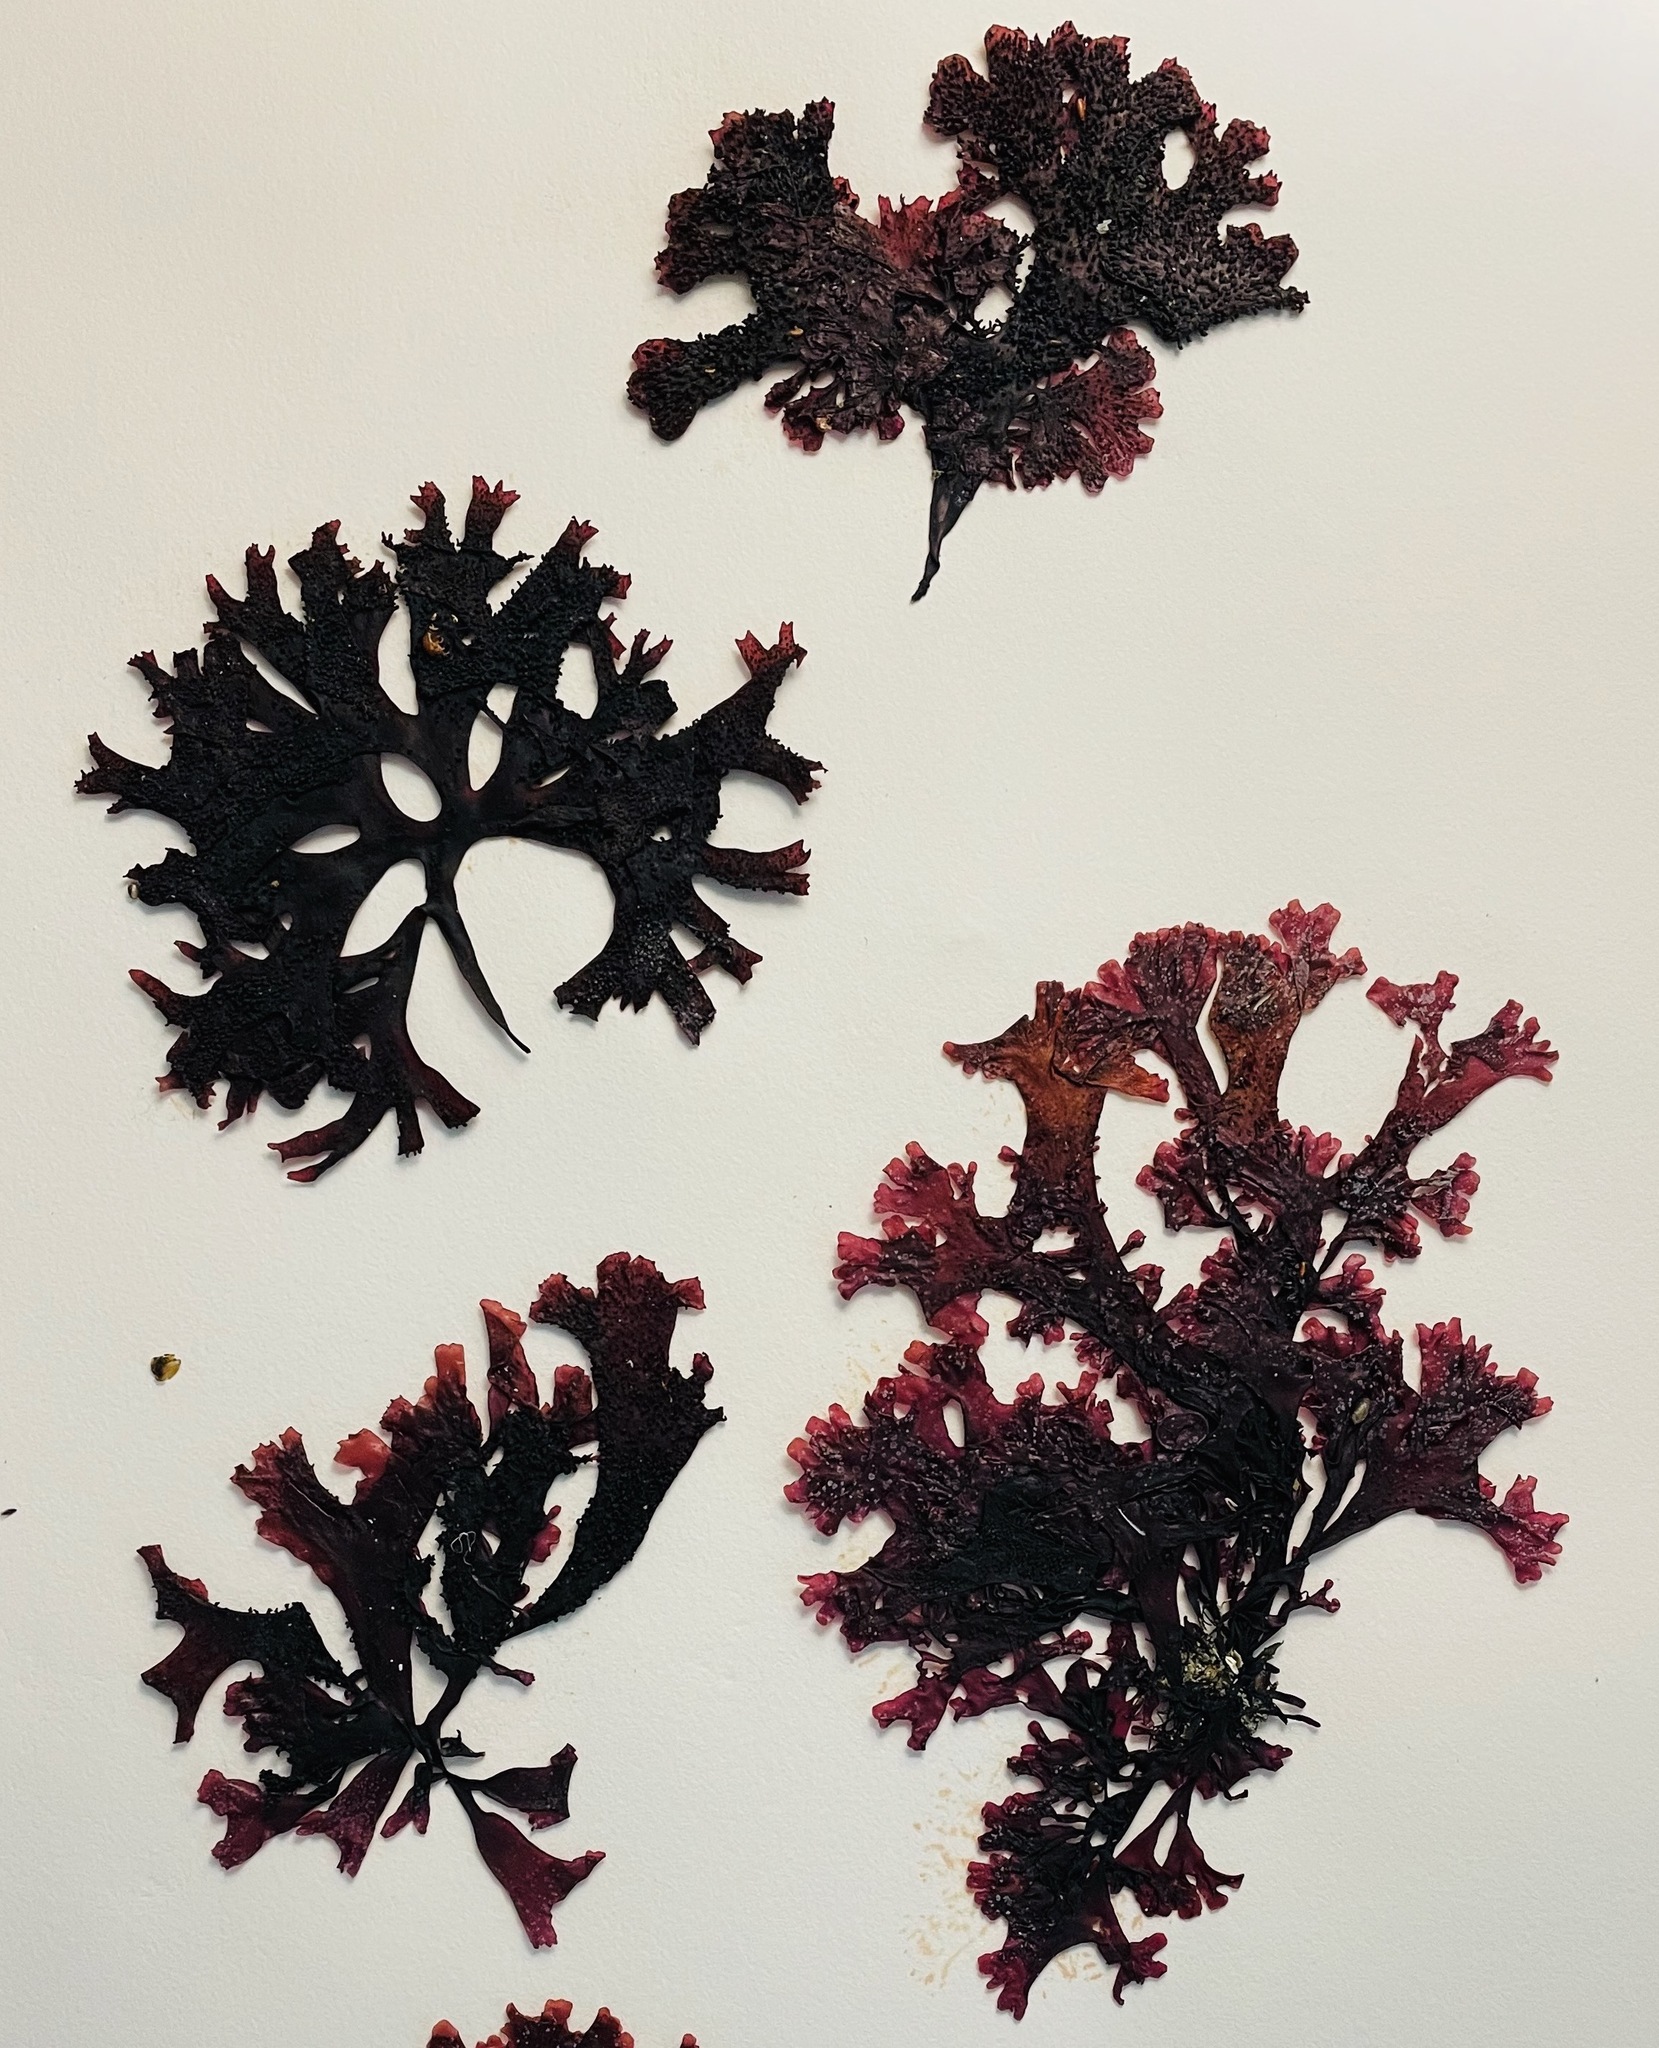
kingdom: Plantae
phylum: Rhodophyta
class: Florideophyceae
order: Gigartinales
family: Phyllophoraceae
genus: Mastocarpus
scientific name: Mastocarpus papillatus
